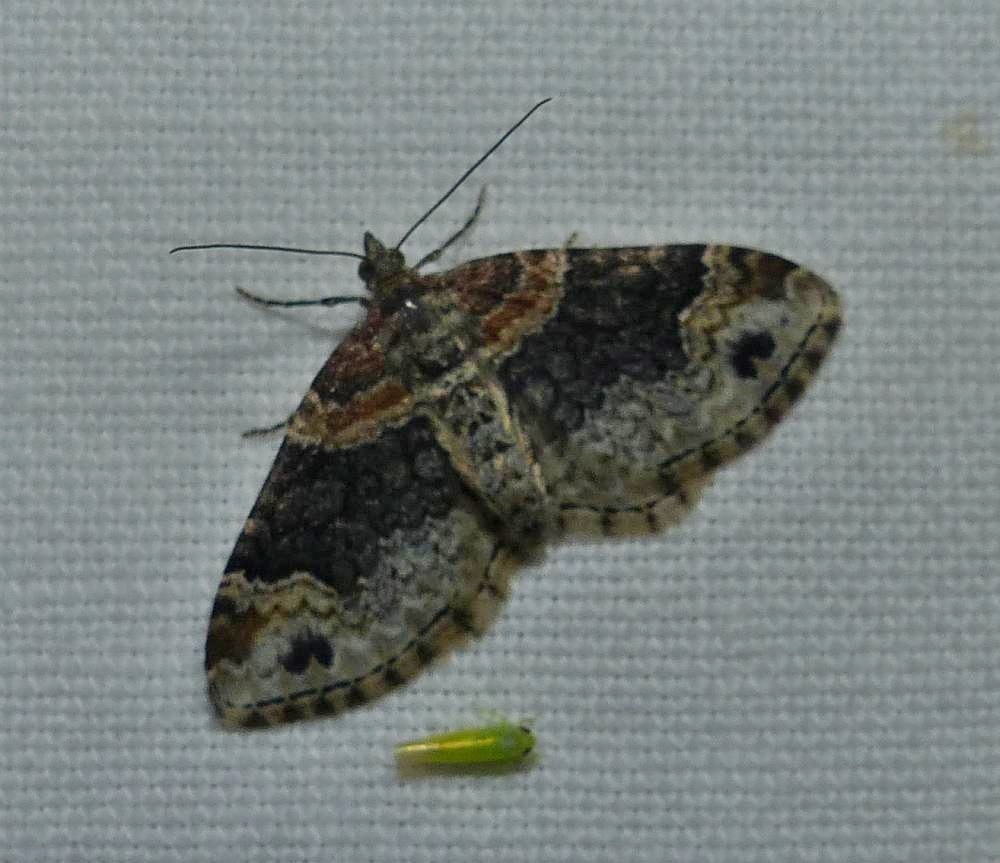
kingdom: Animalia
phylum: Arthropoda
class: Insecta
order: Lepidoptera
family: Geometridae
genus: Xanthorhoe
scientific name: Xanthorhoe ferrugata
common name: Dark-barred twin-spot carpet
